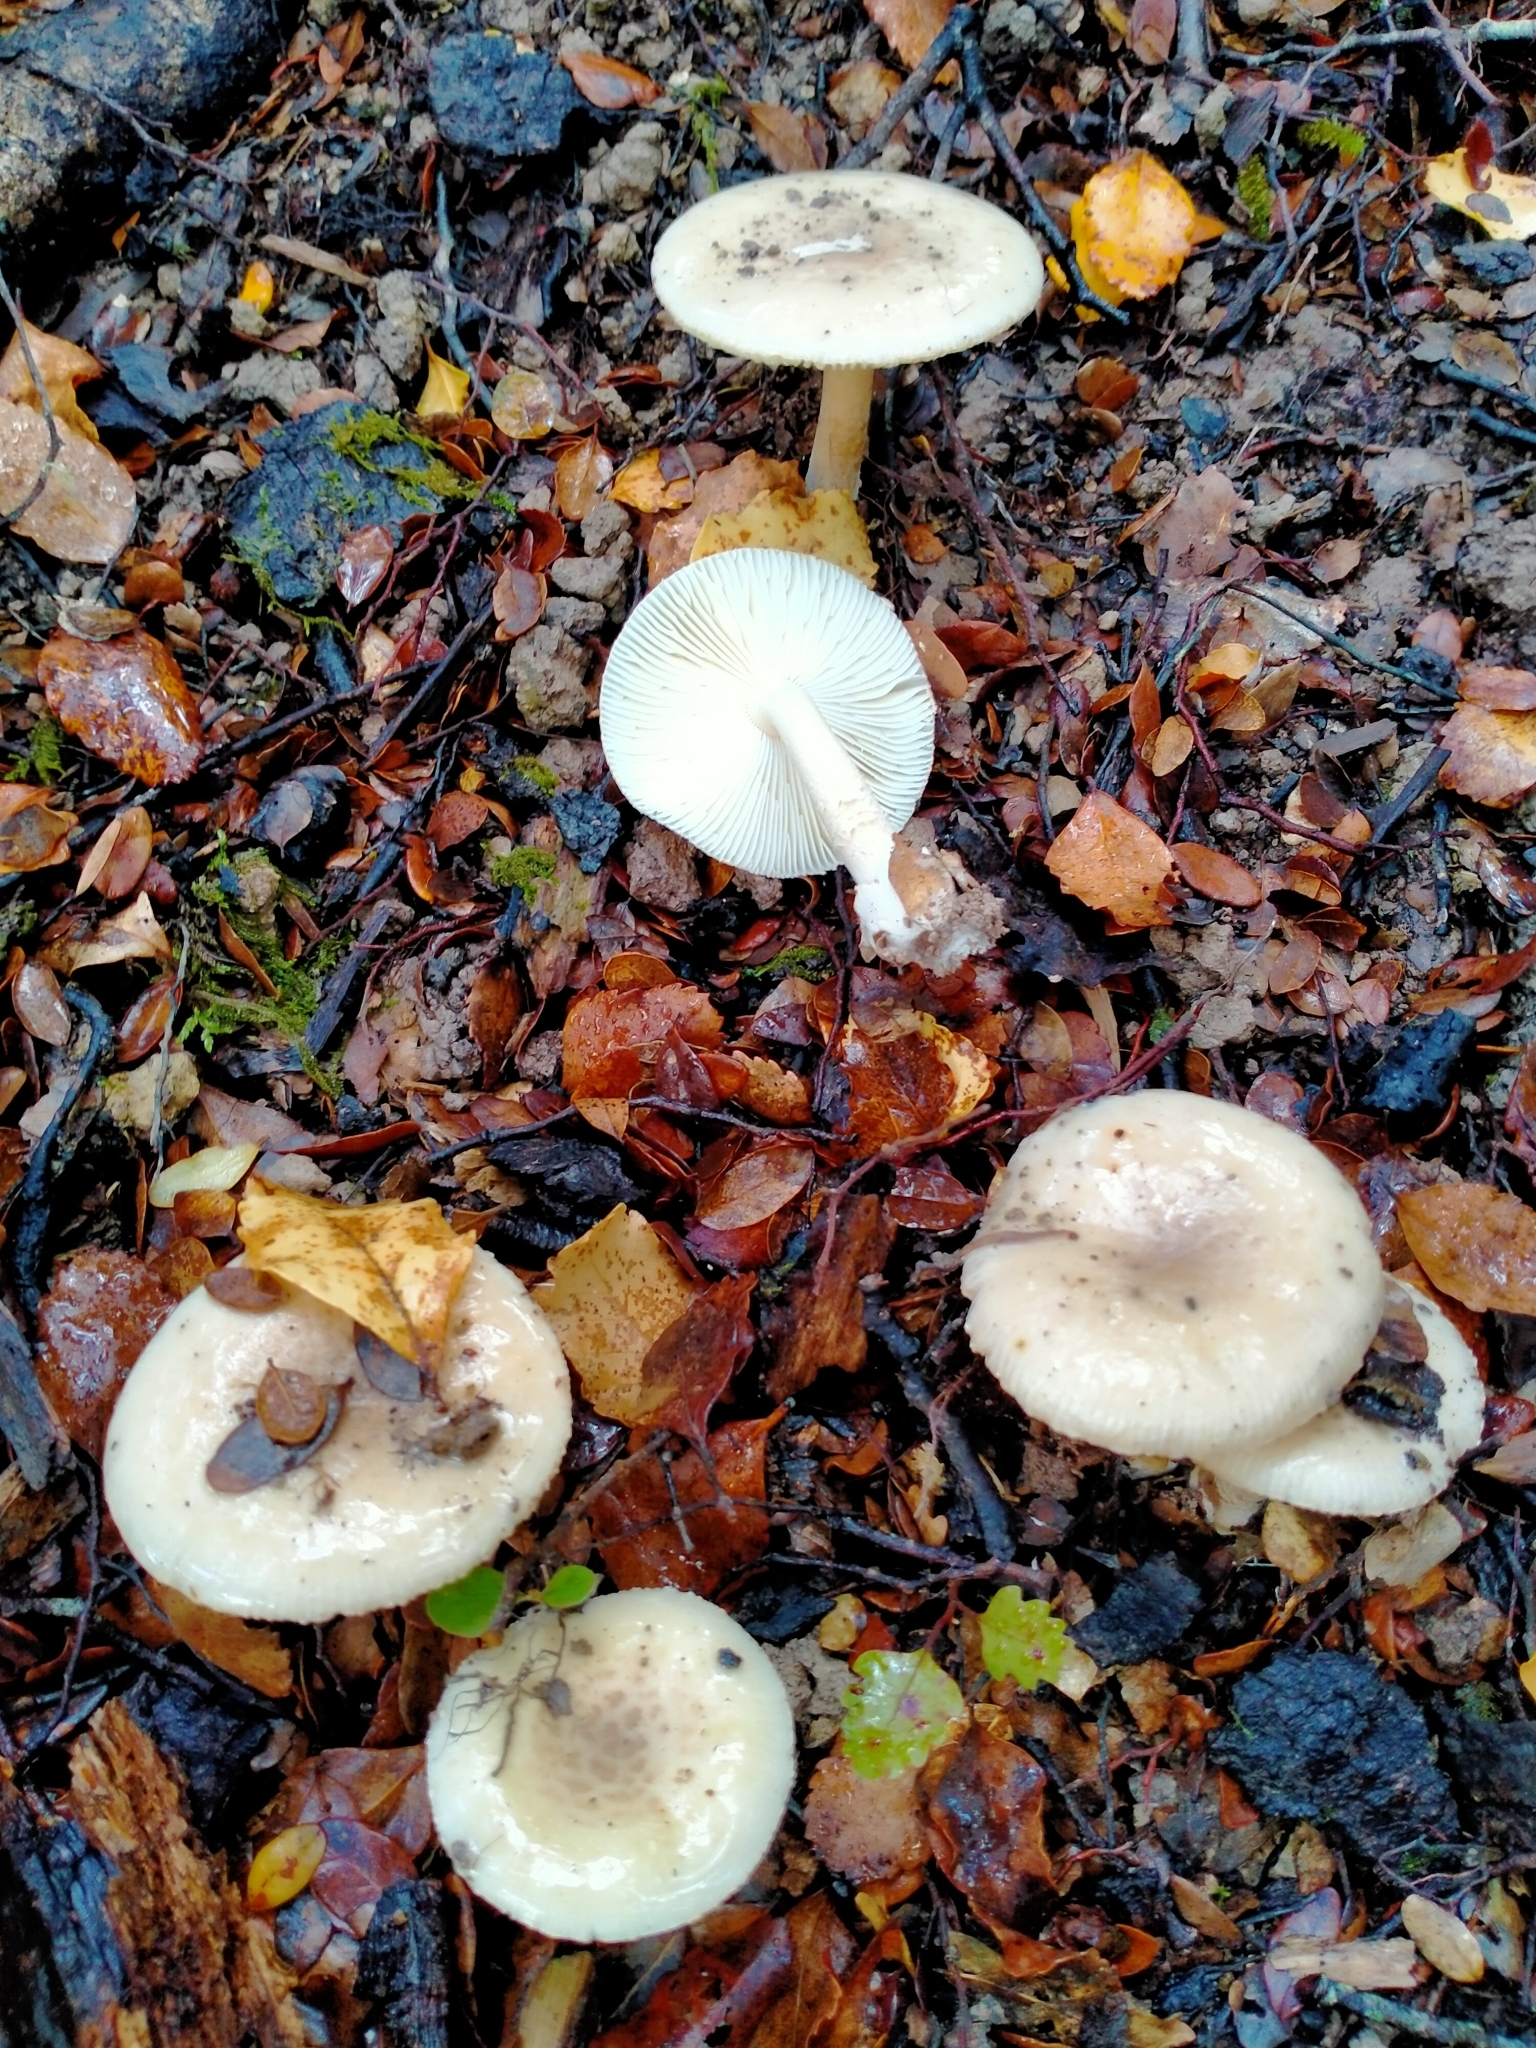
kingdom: Fungi
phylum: Basidiomycota
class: Agaricomycetes
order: Agaricales
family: Amanitaceae
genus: Amanita
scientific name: Amanita taiepa
